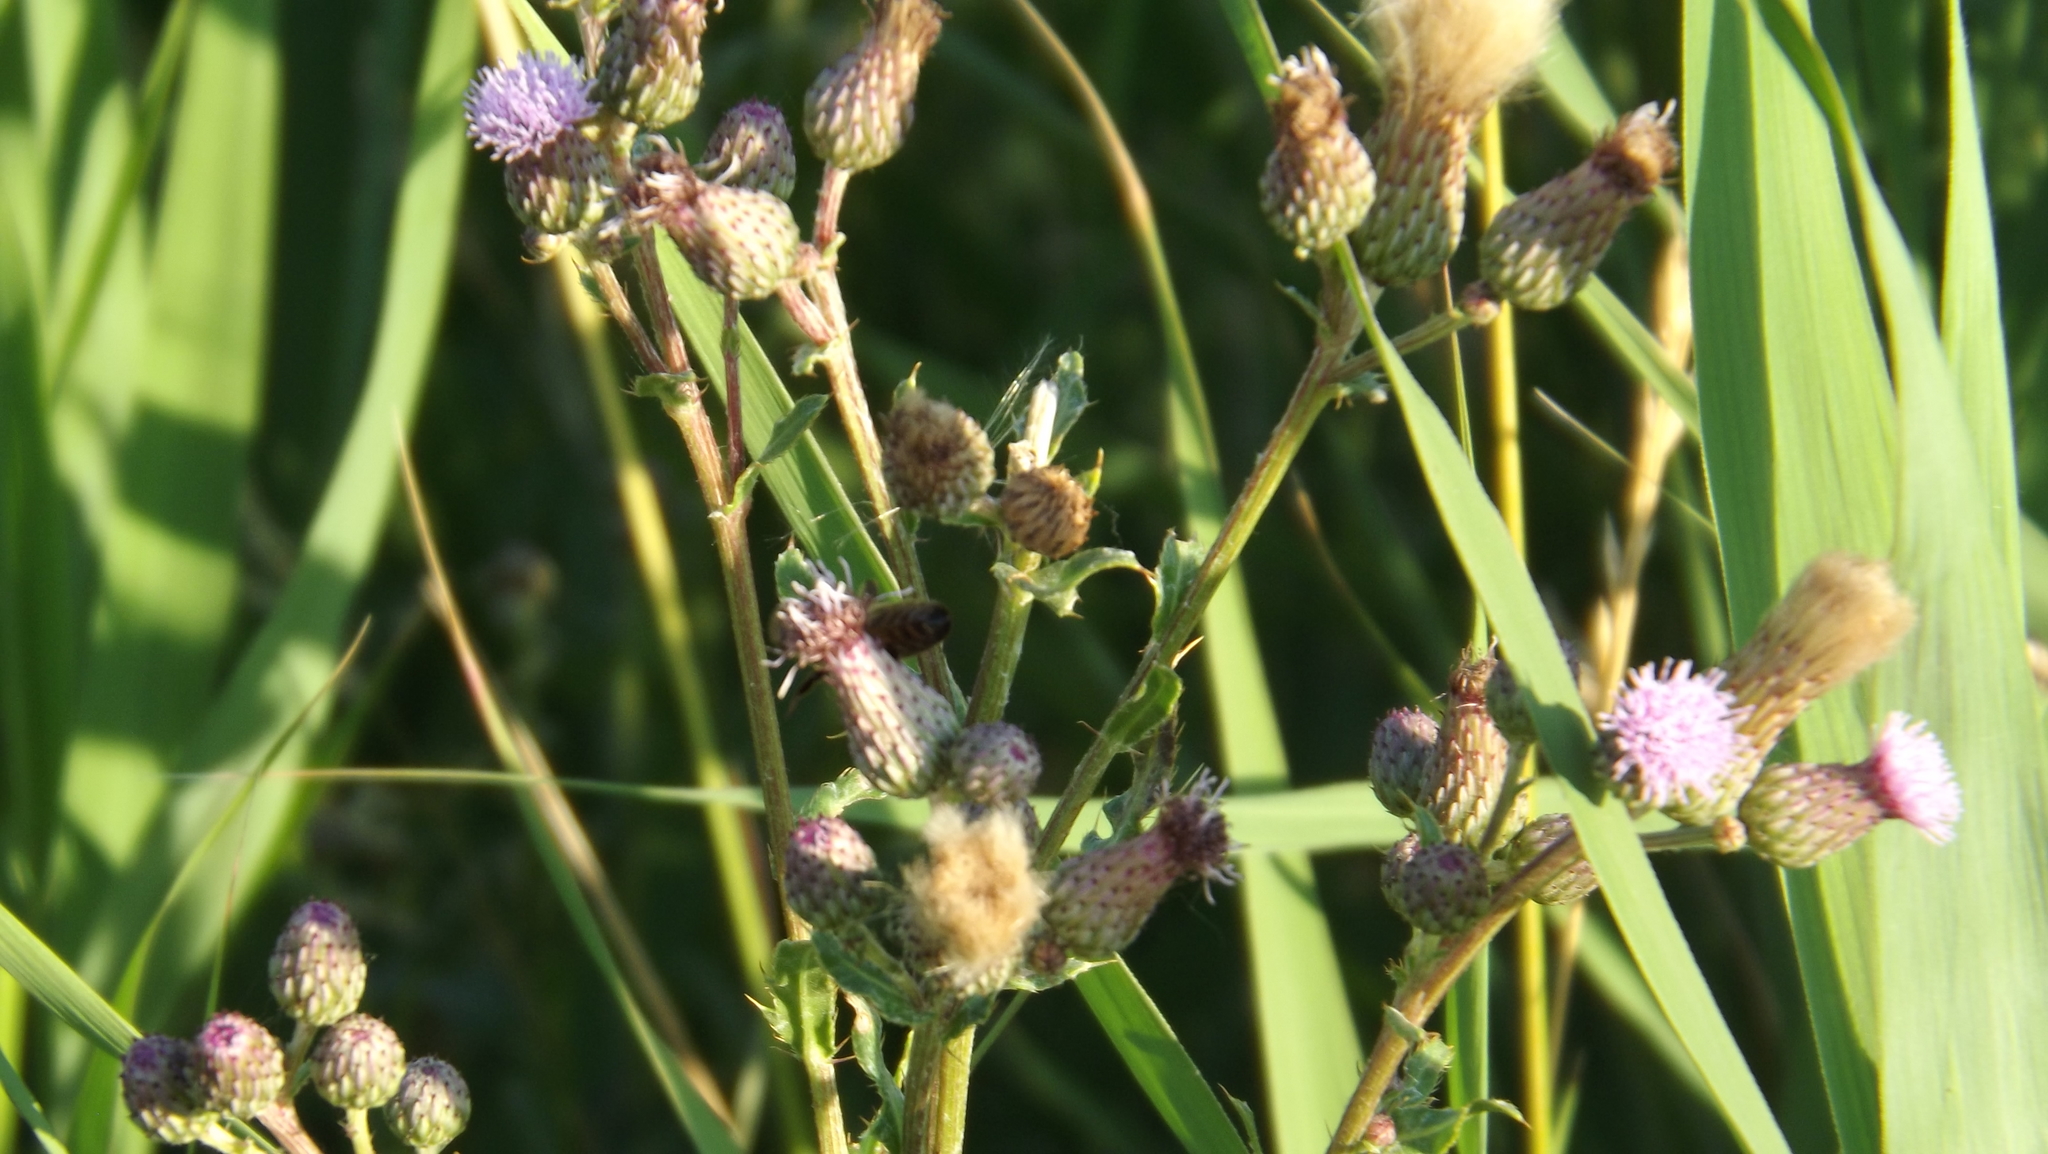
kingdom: Plantae
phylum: Tracheophyta
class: Magnoliopsida
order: Asterales
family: Asteraceae
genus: Cirsium
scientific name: Cirsium arvense
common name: Creeping thistle
